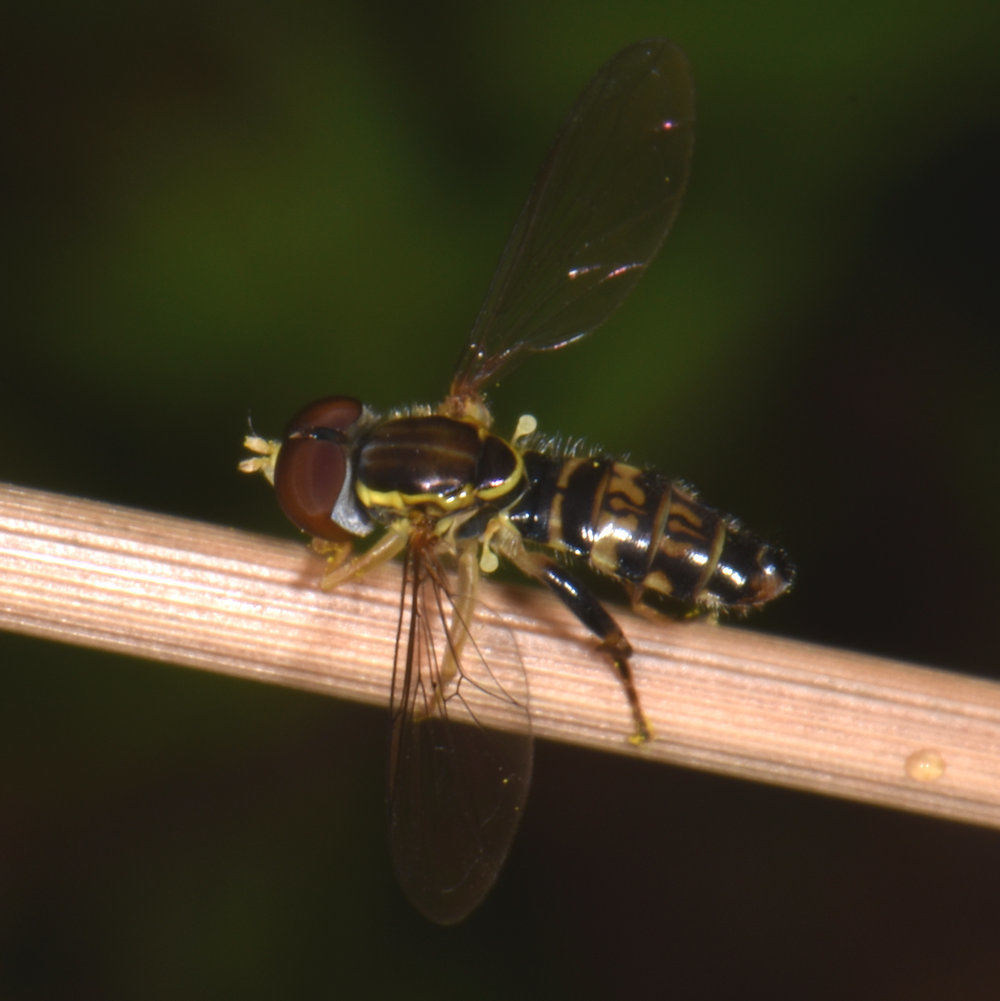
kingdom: Animalia
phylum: Arthropoda
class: Insecta
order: Diptera
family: Syrphidae
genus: Toxomerus
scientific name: Toxomerus geminatus
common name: Eastern calligrapher
